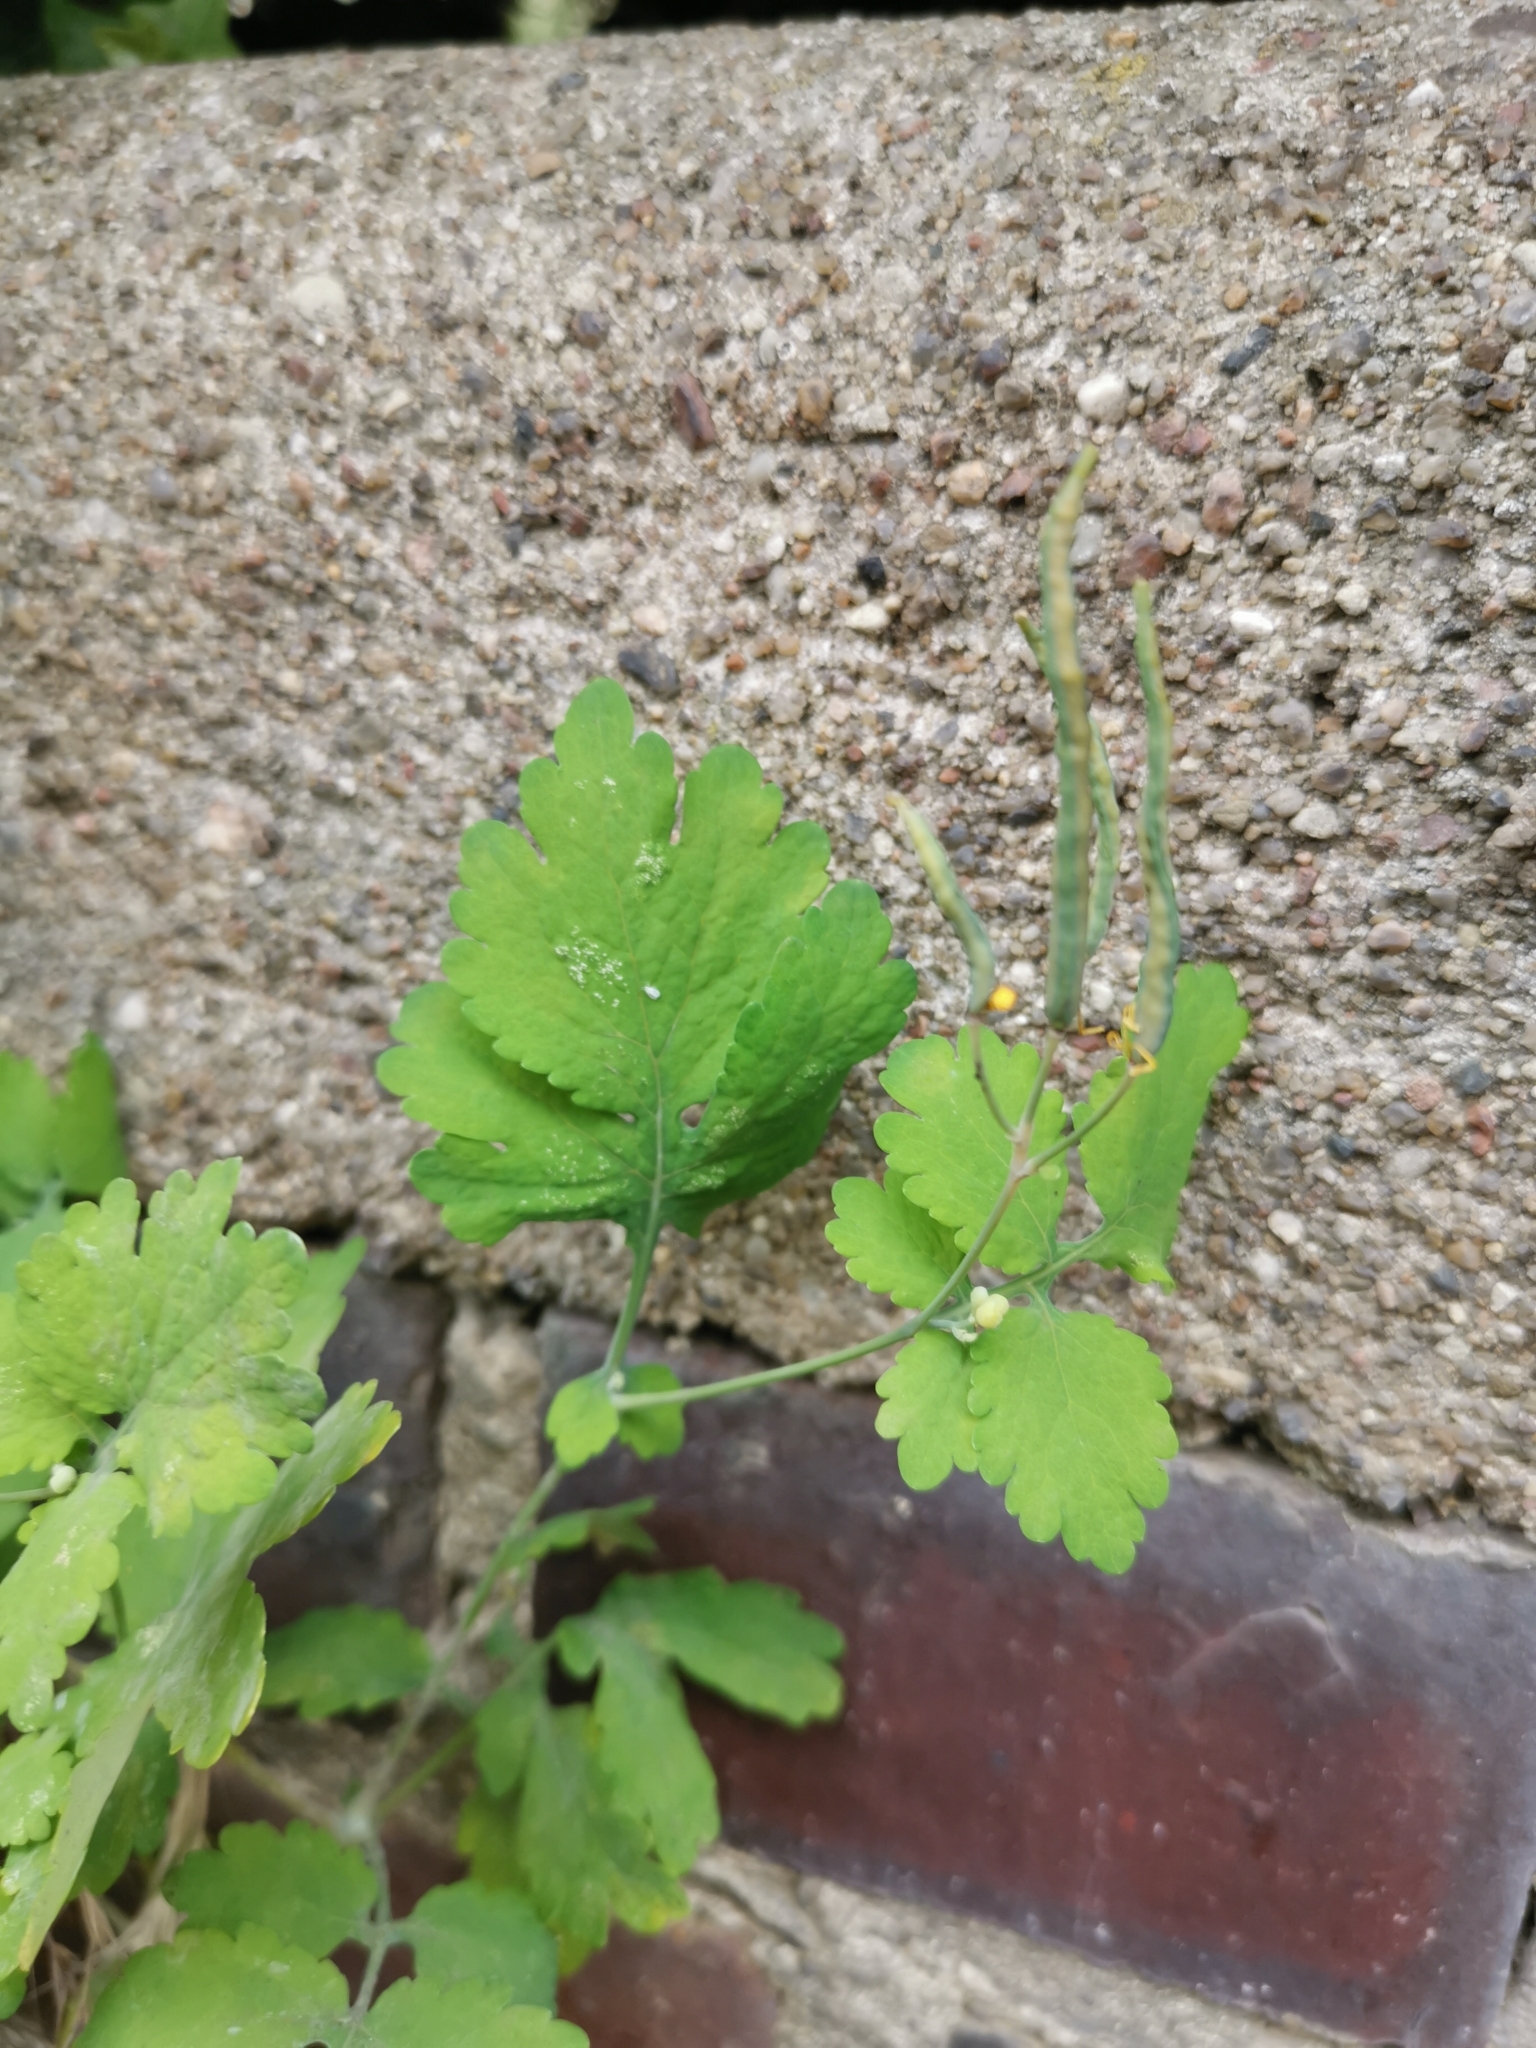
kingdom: Plantae
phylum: Tracheophyta
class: Magnoliopsida
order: Ranunculales
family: Papaveraceae
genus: Chelidonium
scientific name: Chelidonium majus
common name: Greater celandine
